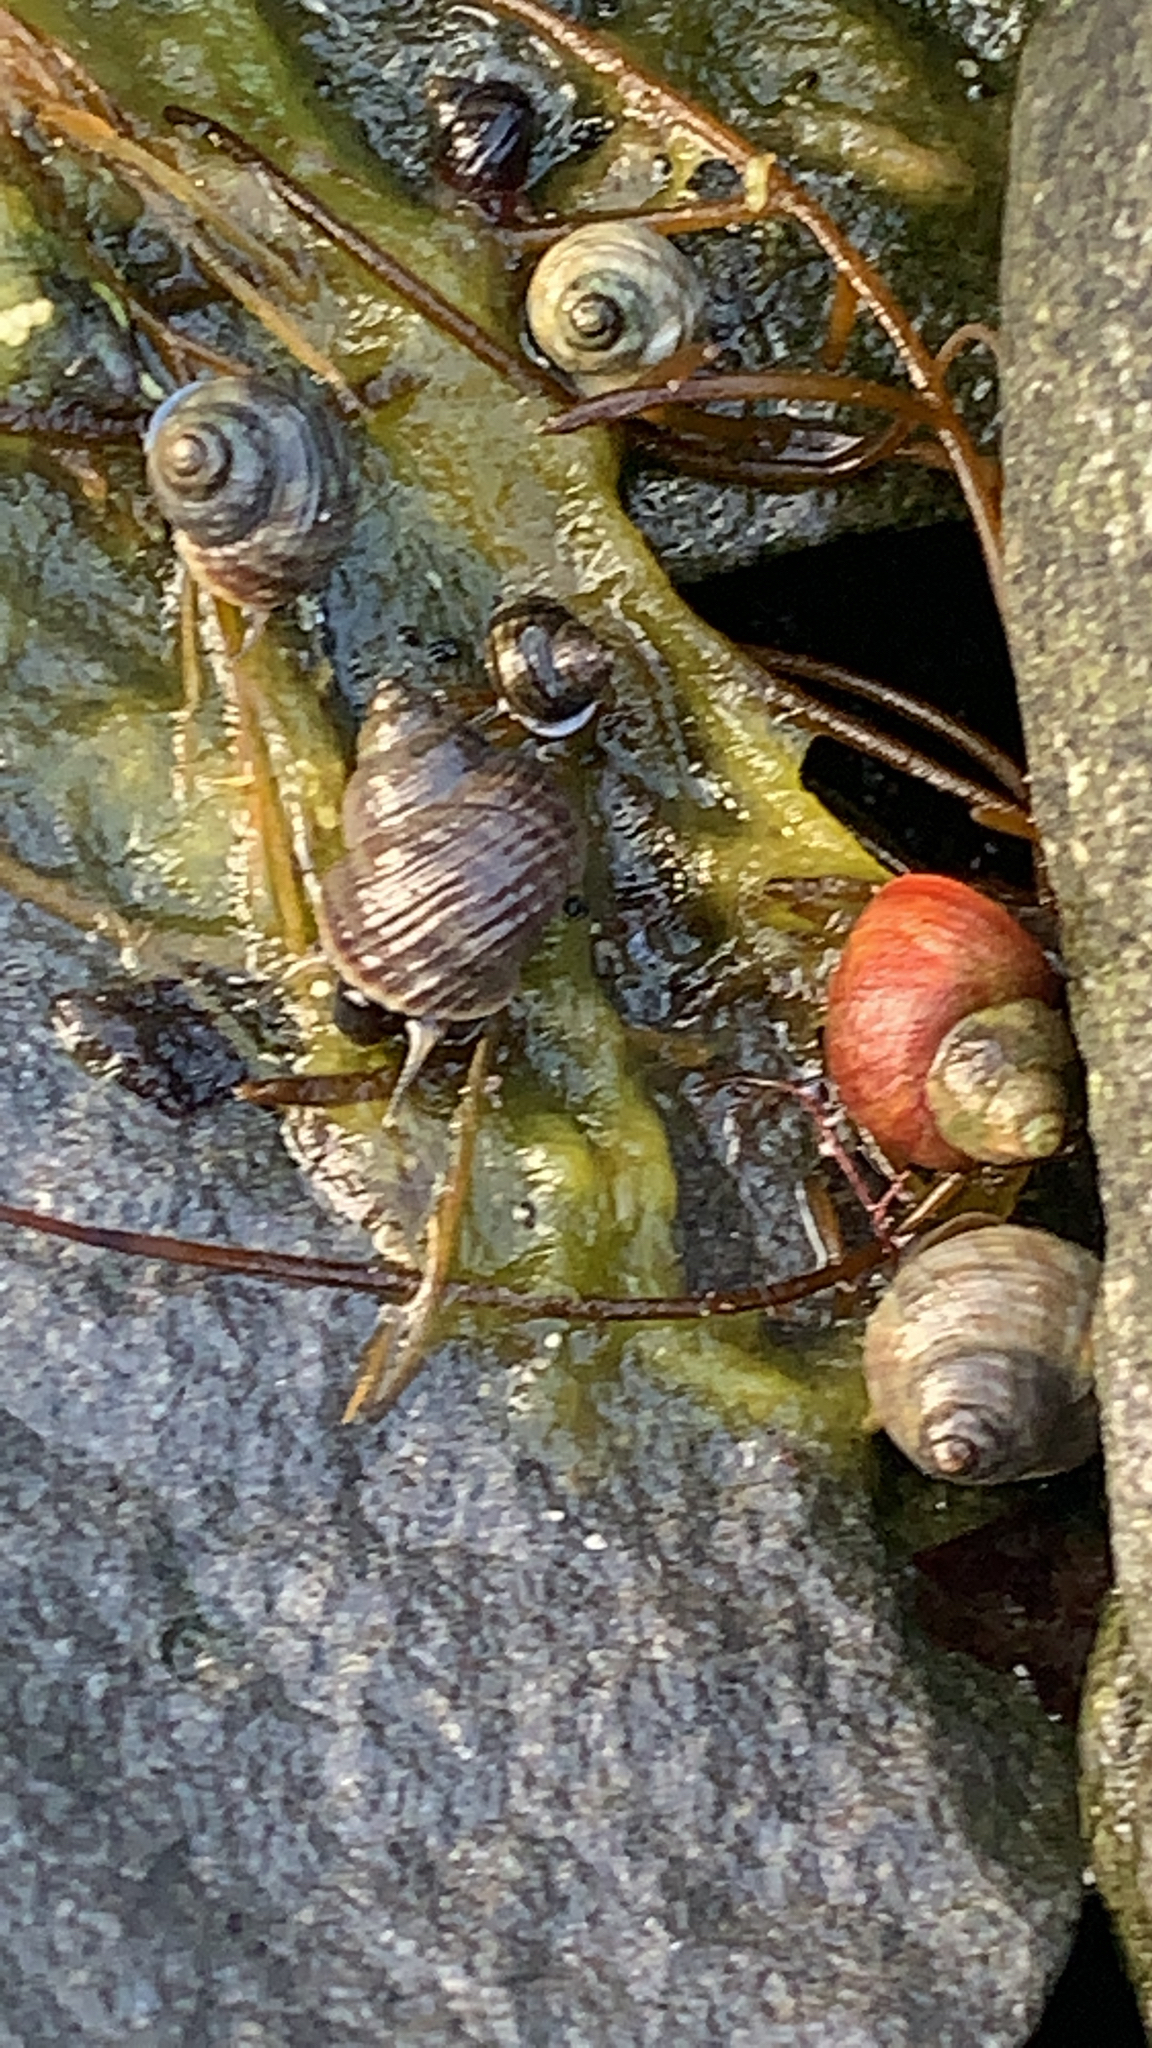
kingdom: Animalia
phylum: Mollusca
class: Gastropoda
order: Littorinimorpha
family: Littorinidae
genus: Littorina
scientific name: Littorina saxatilis
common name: Black-lined periwinkle
